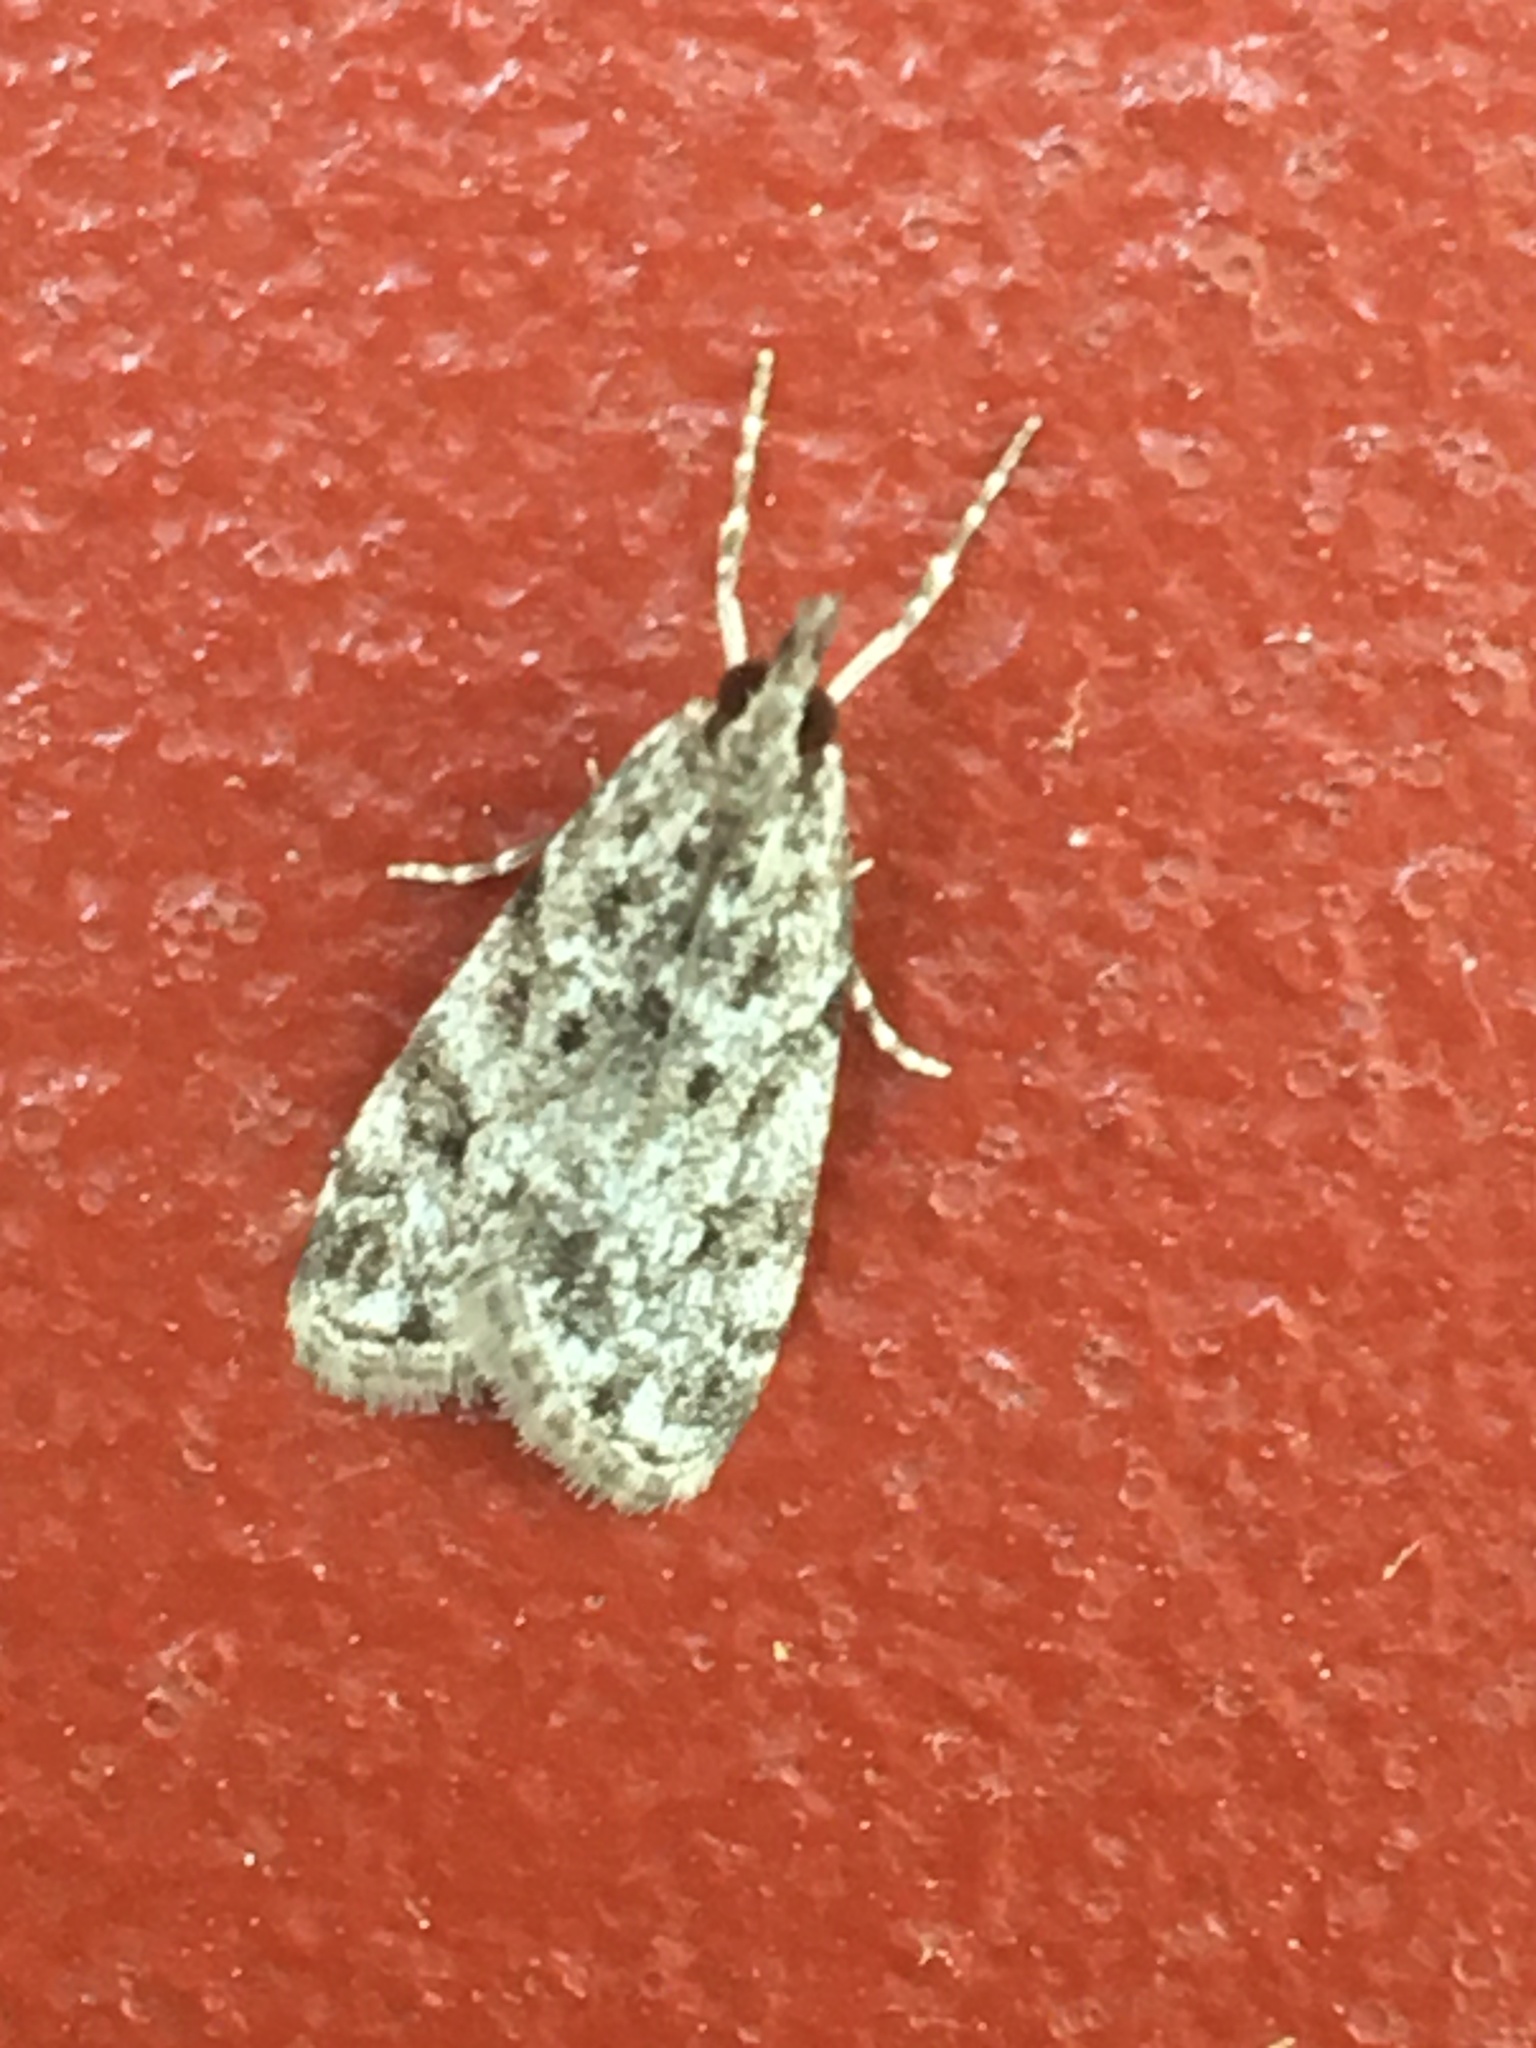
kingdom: Animalia
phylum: Arthropoda
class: Insecta
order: Lepidoptera
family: Crambidae
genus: Eudonia
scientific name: Eudonia heterosalis
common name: Mcdunnough's eudonia
